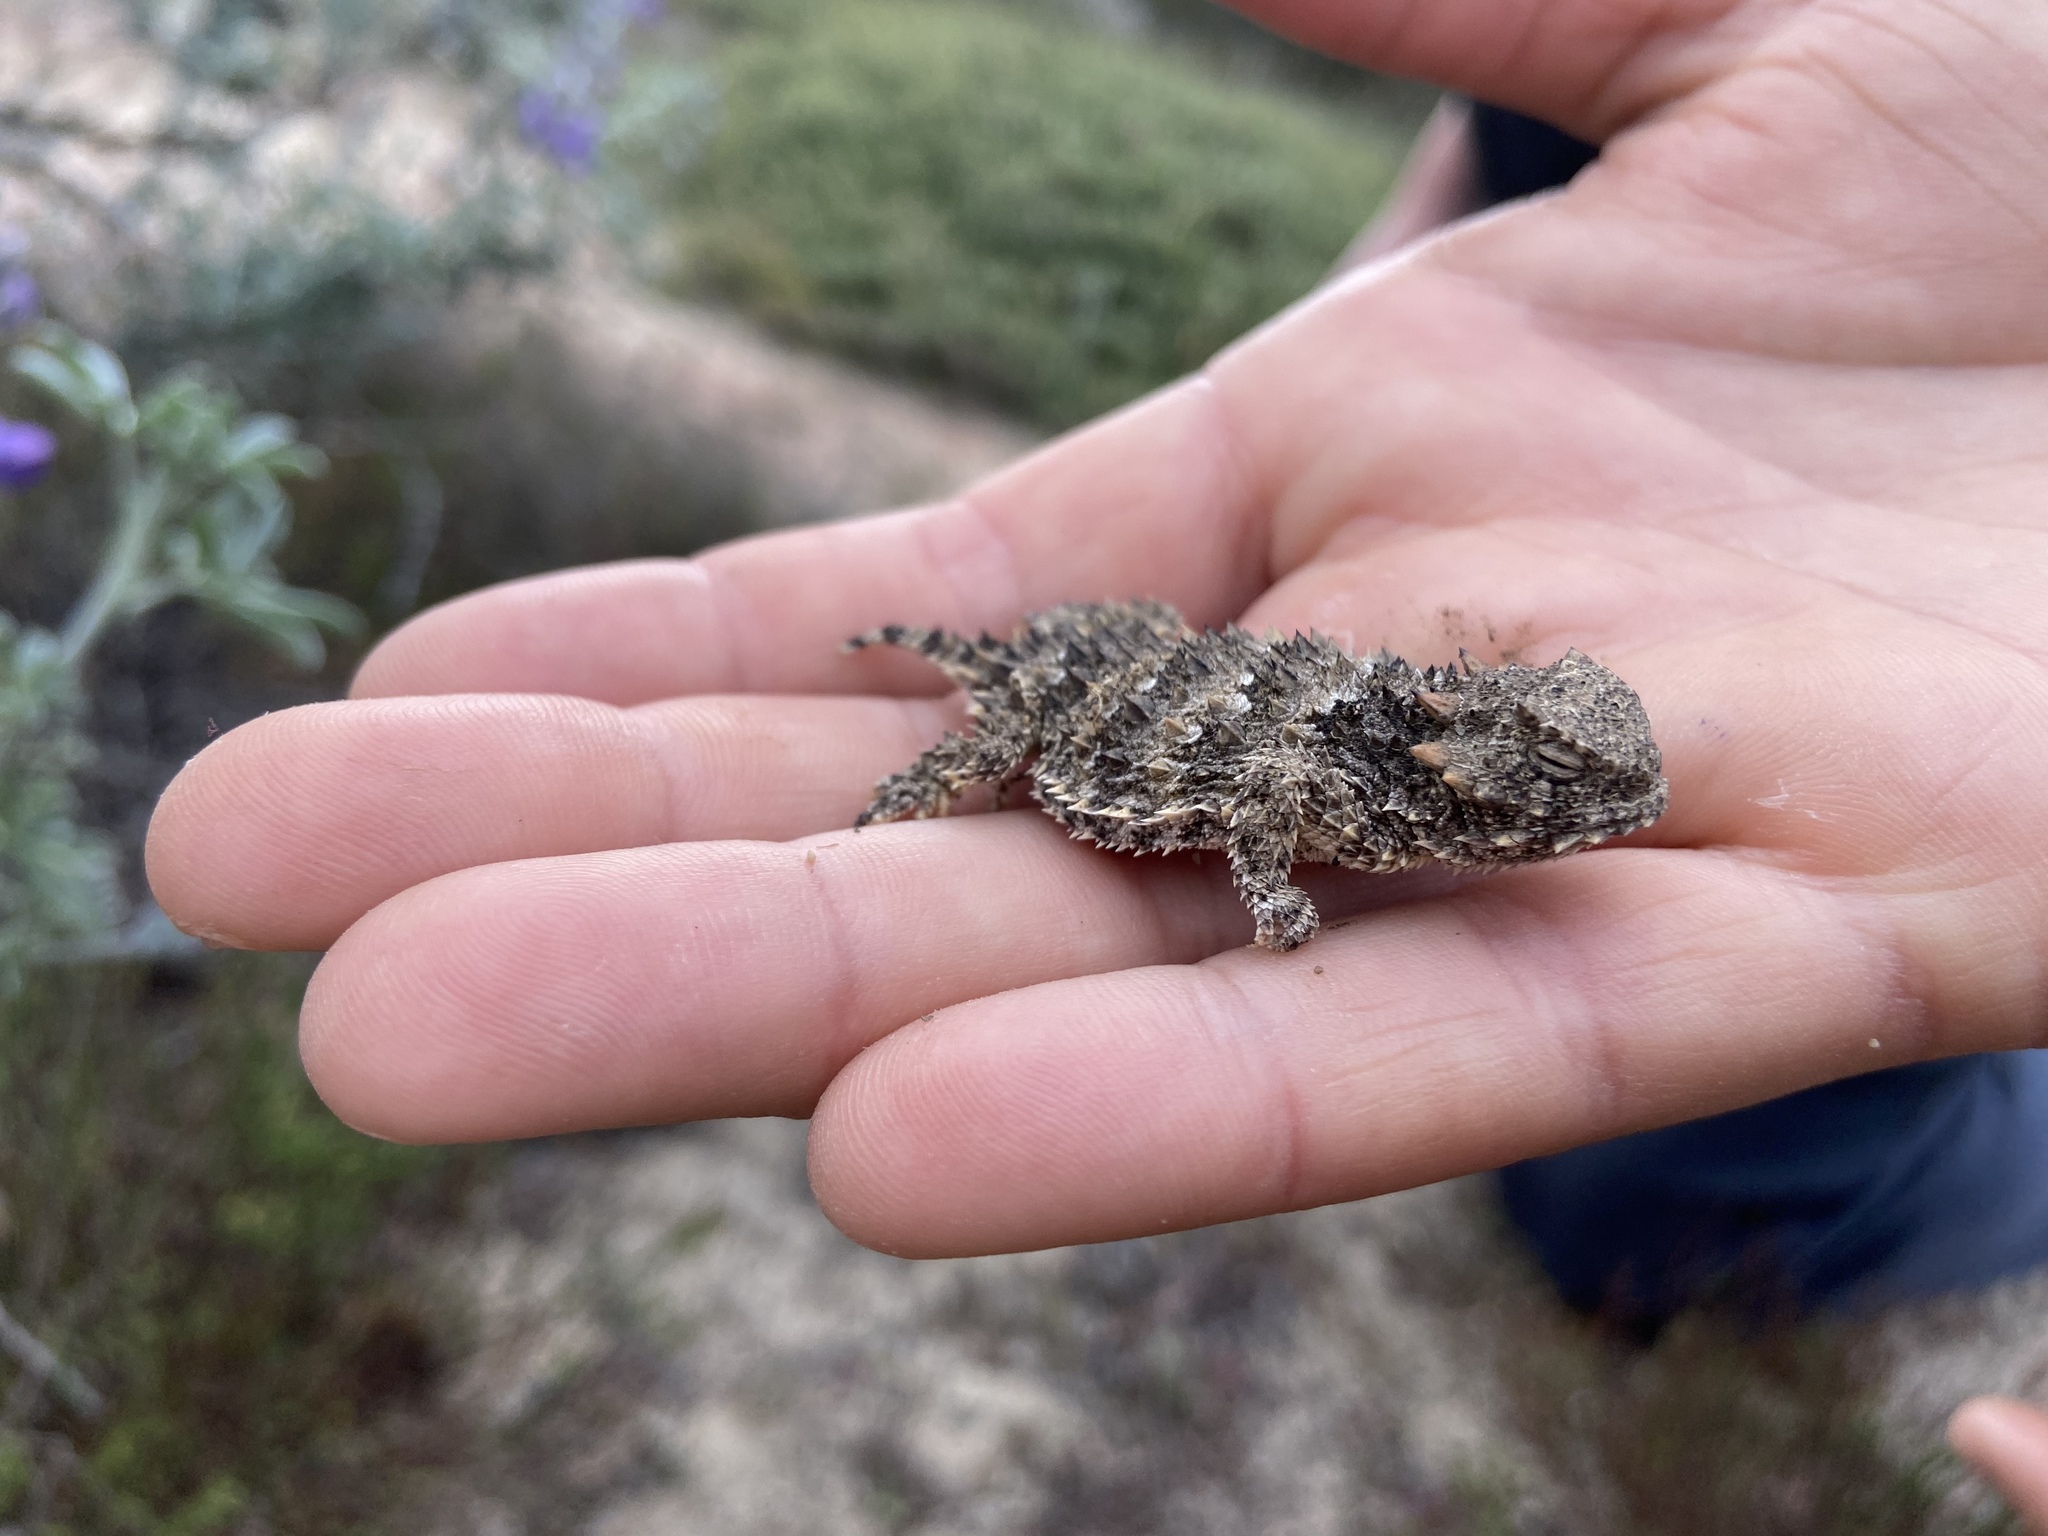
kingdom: Animalia
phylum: Chordata
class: Squamata
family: Phrynosomatidae
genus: Phrynosoma
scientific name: Phrynosoma blainvillii
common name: San diego horned lizard
